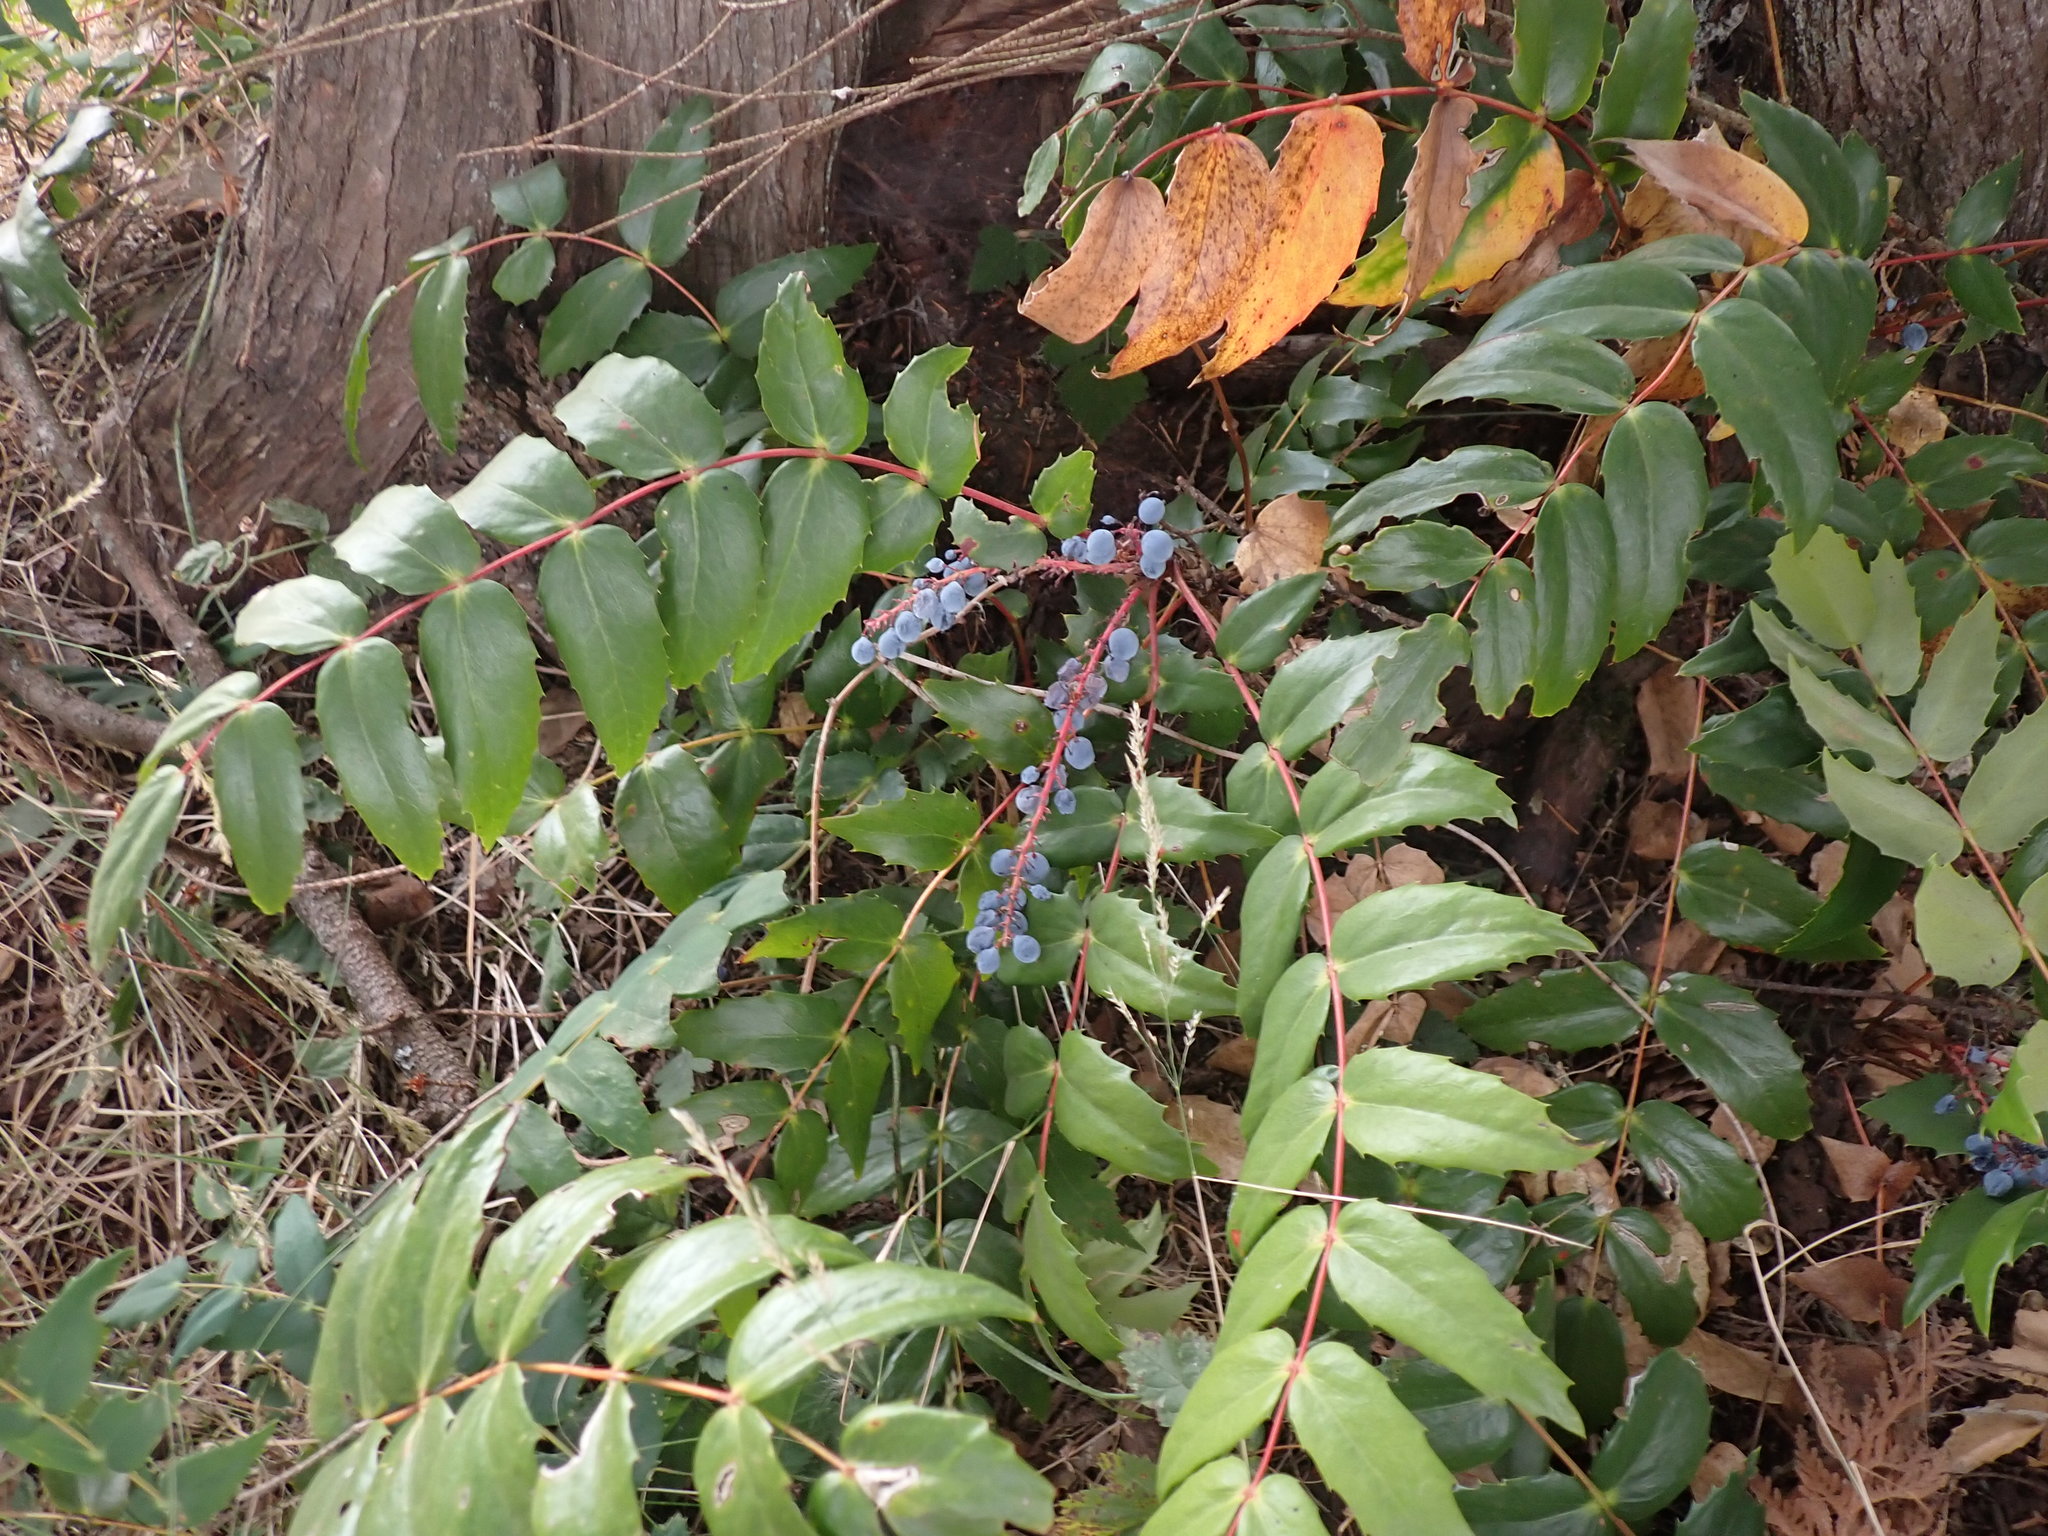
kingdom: Plantae
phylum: Tracheophyta
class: Magnoliopsida
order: Ranunculales
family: Berberidaceae
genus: Mahonia
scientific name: Mahonia nervosa
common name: Cascade oregon-grape
